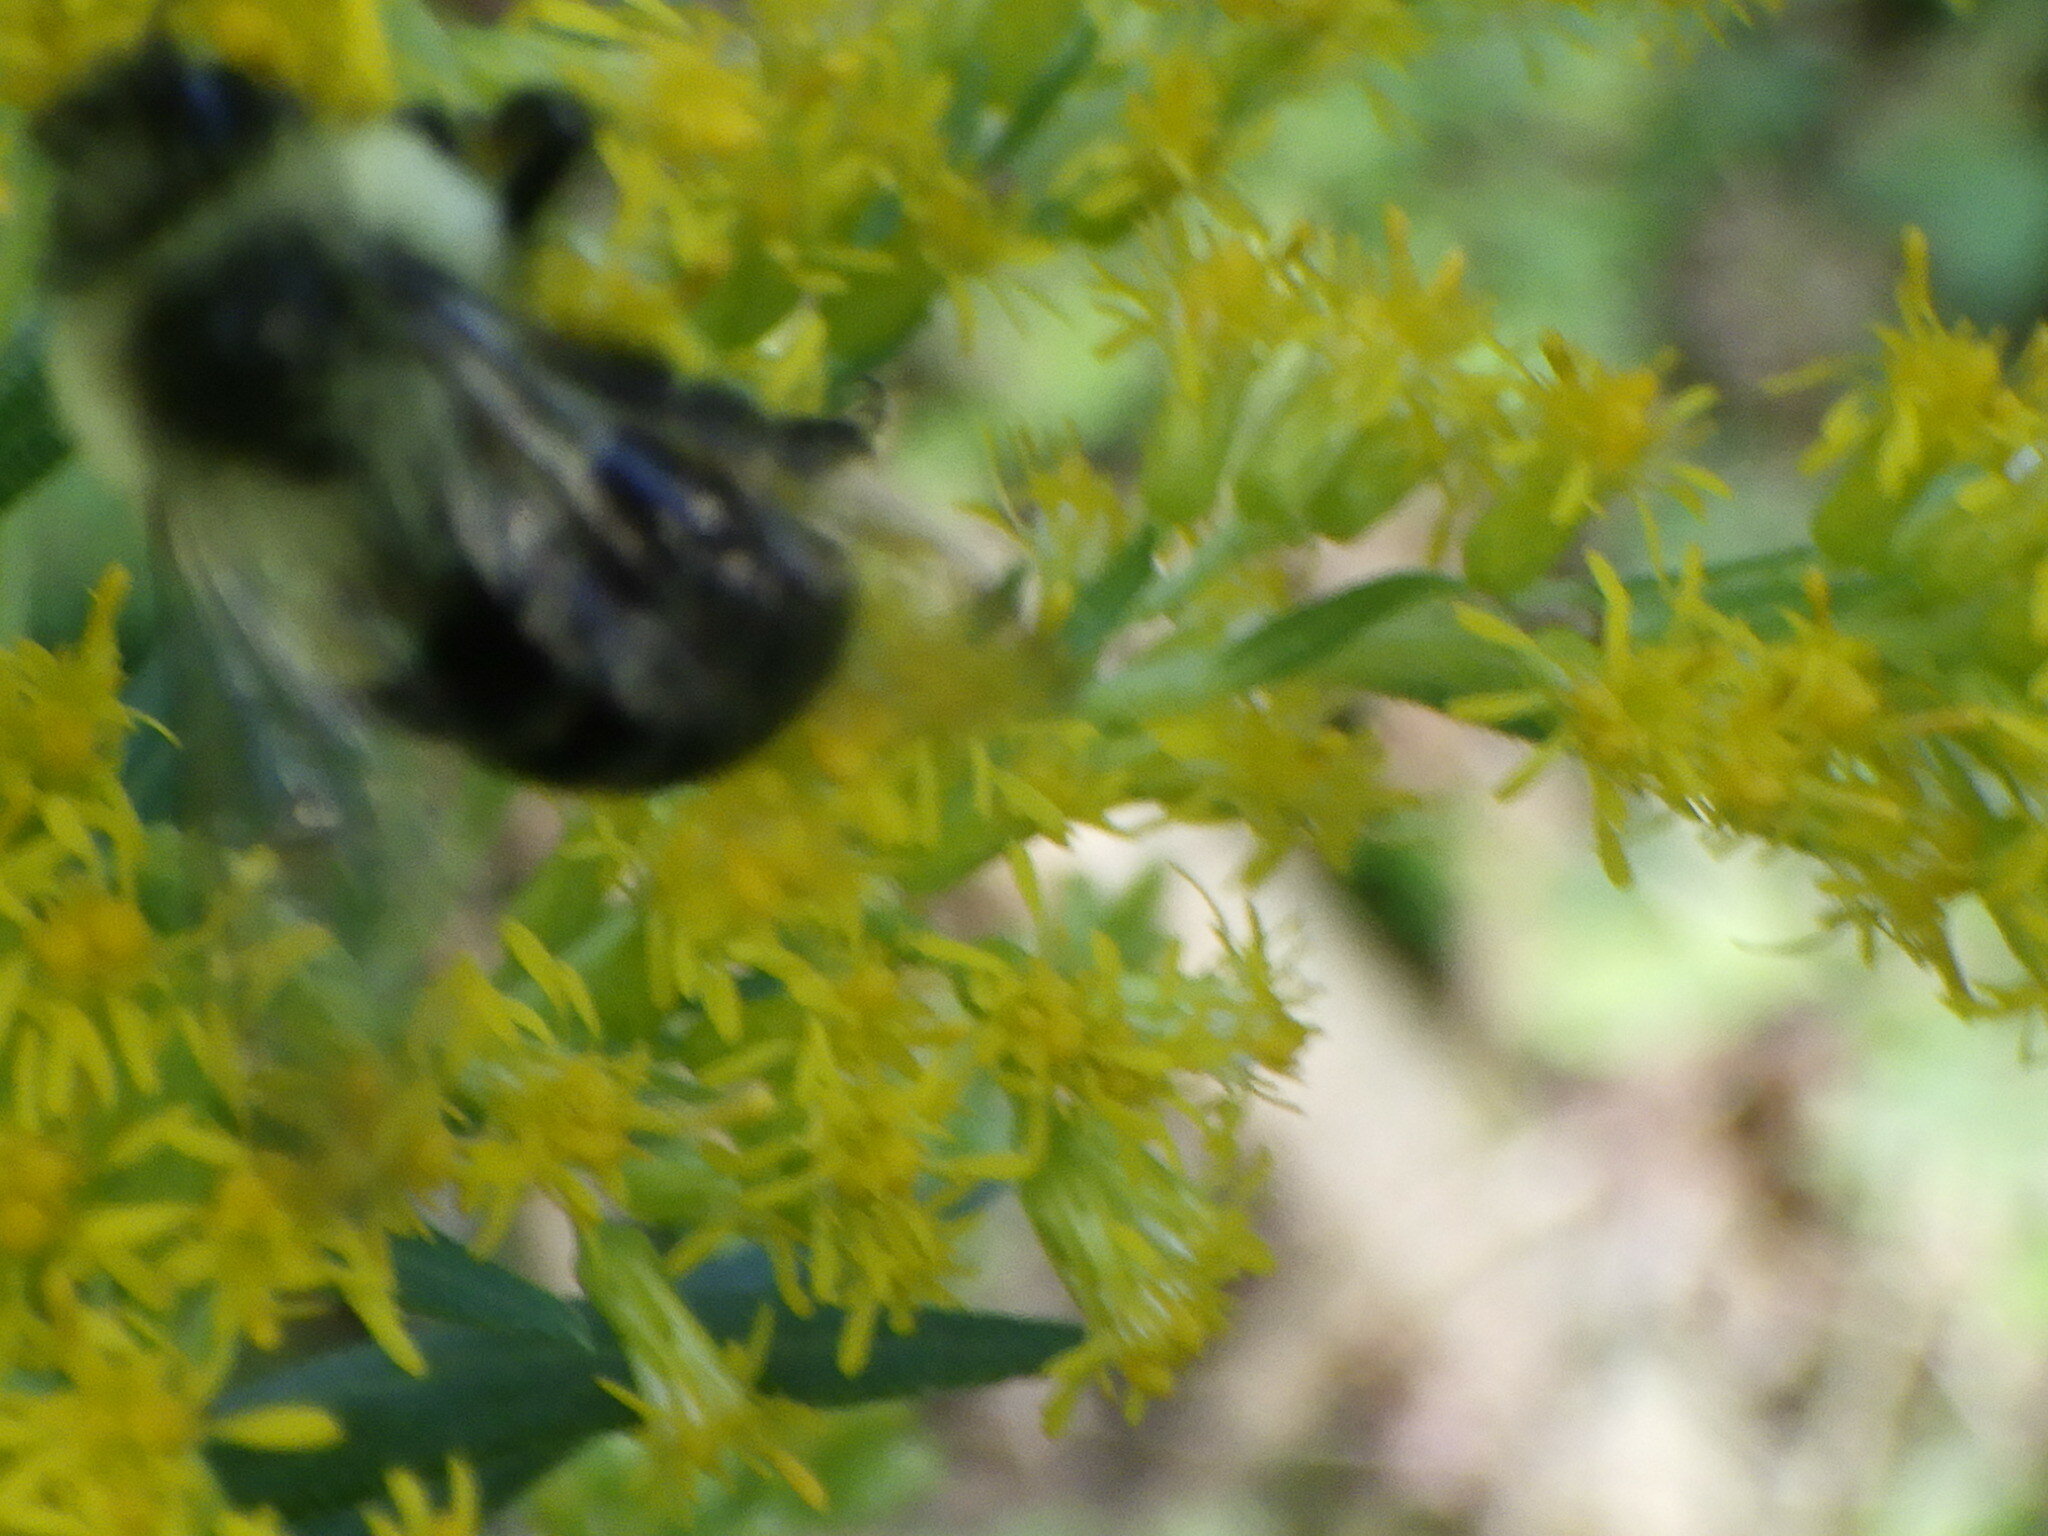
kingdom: Animalia
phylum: Arthropoda
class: Insecta
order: Hymenoptera
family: Apidae
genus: Bombus
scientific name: Bombus impatiens
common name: Common eastern bumble bee
